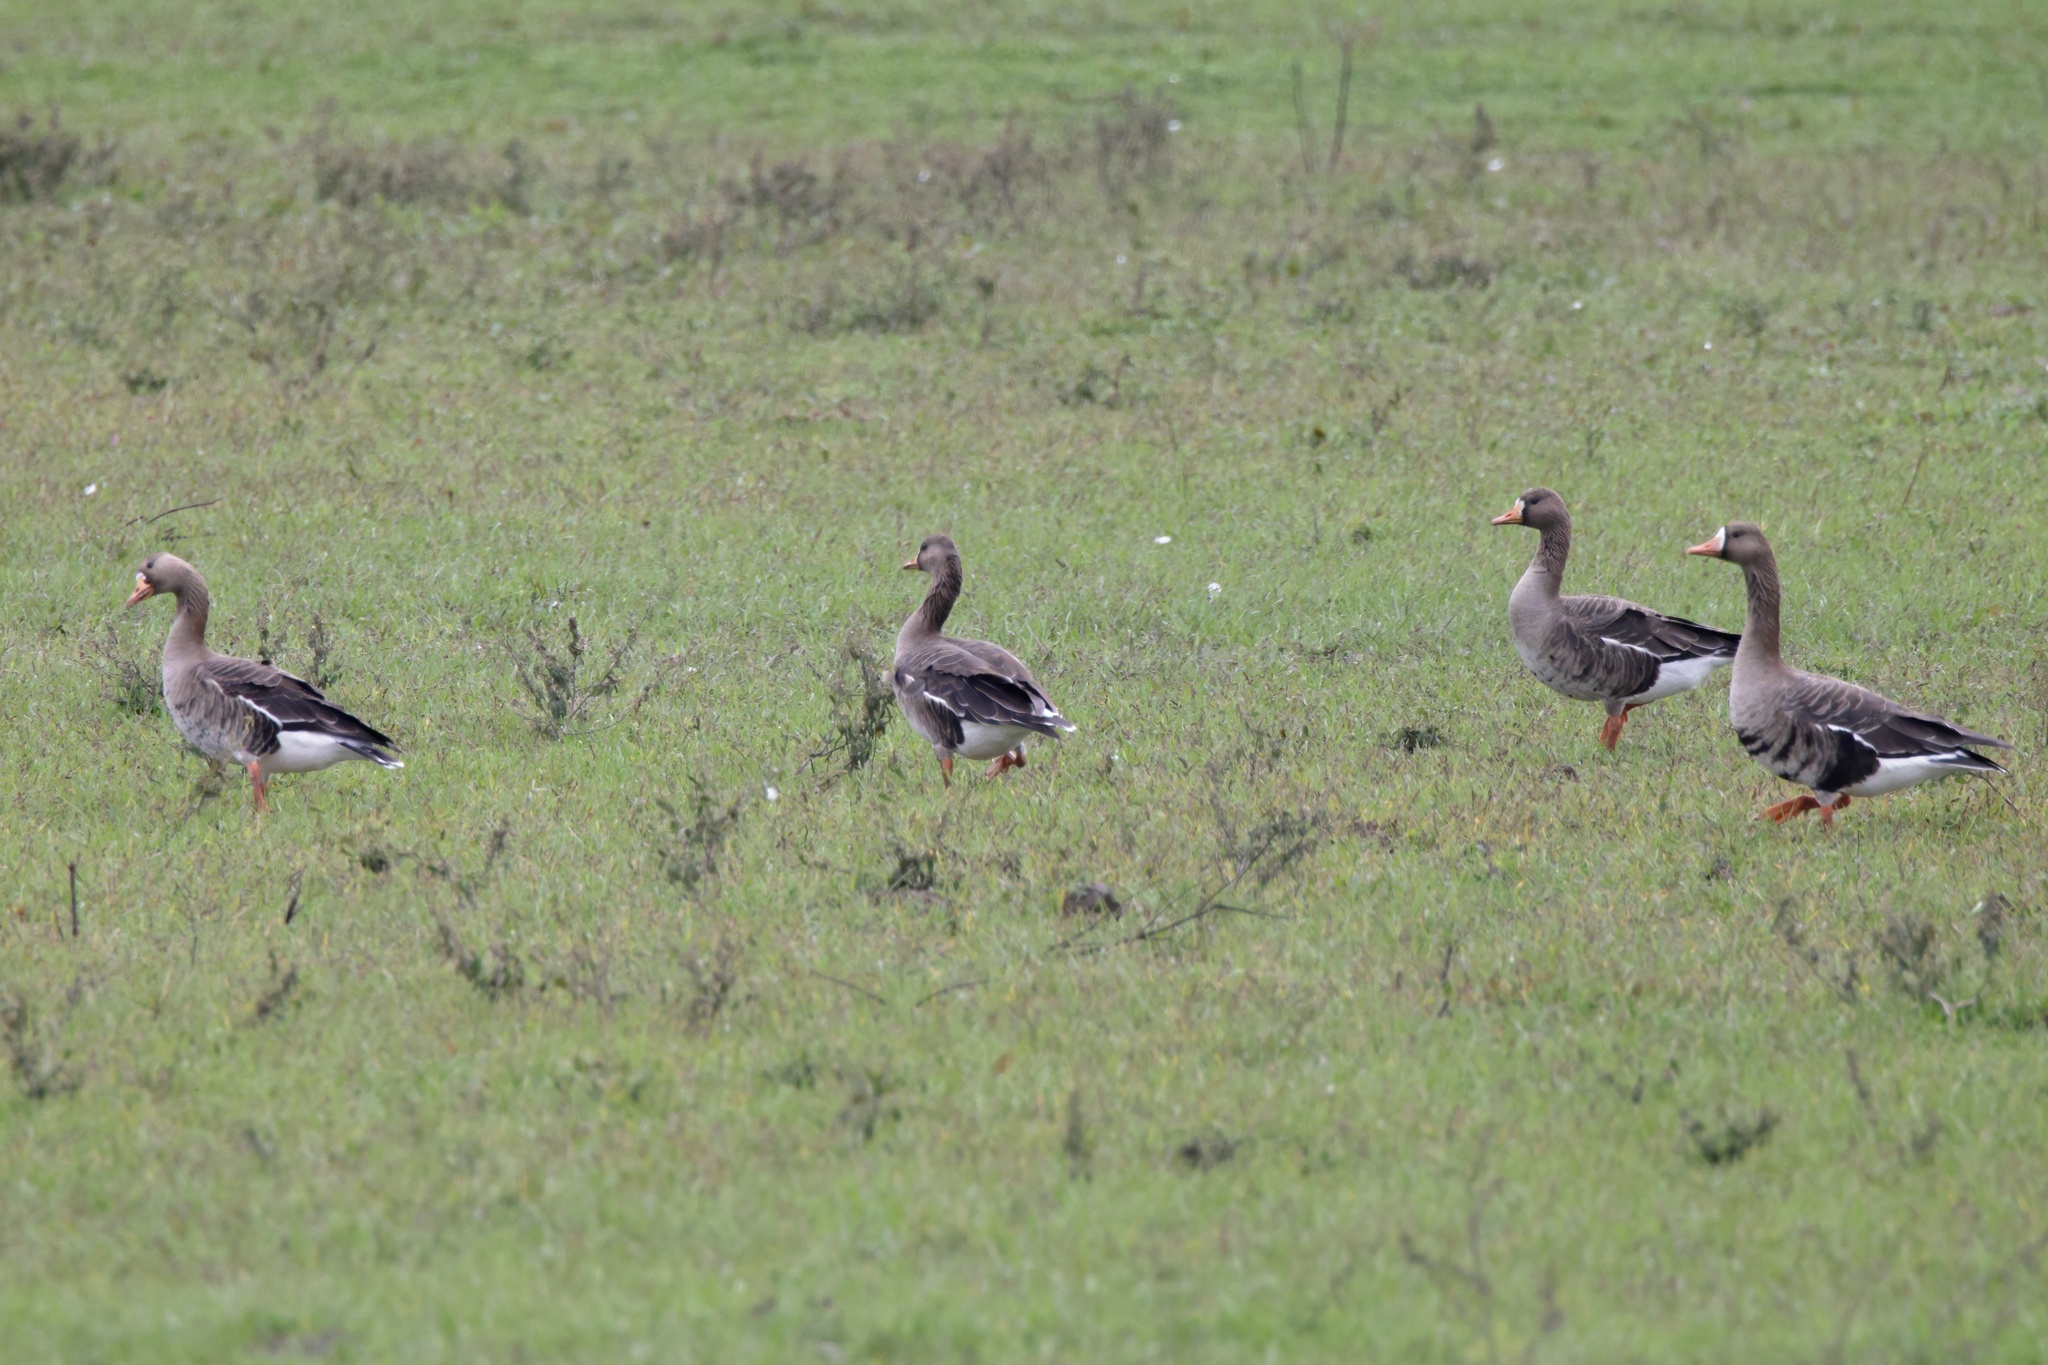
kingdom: Animalia
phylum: Chordata
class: Aves
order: Anseriformes
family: Anatidae
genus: Anser
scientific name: Anser albifrons
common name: Greater white-fronted goose
